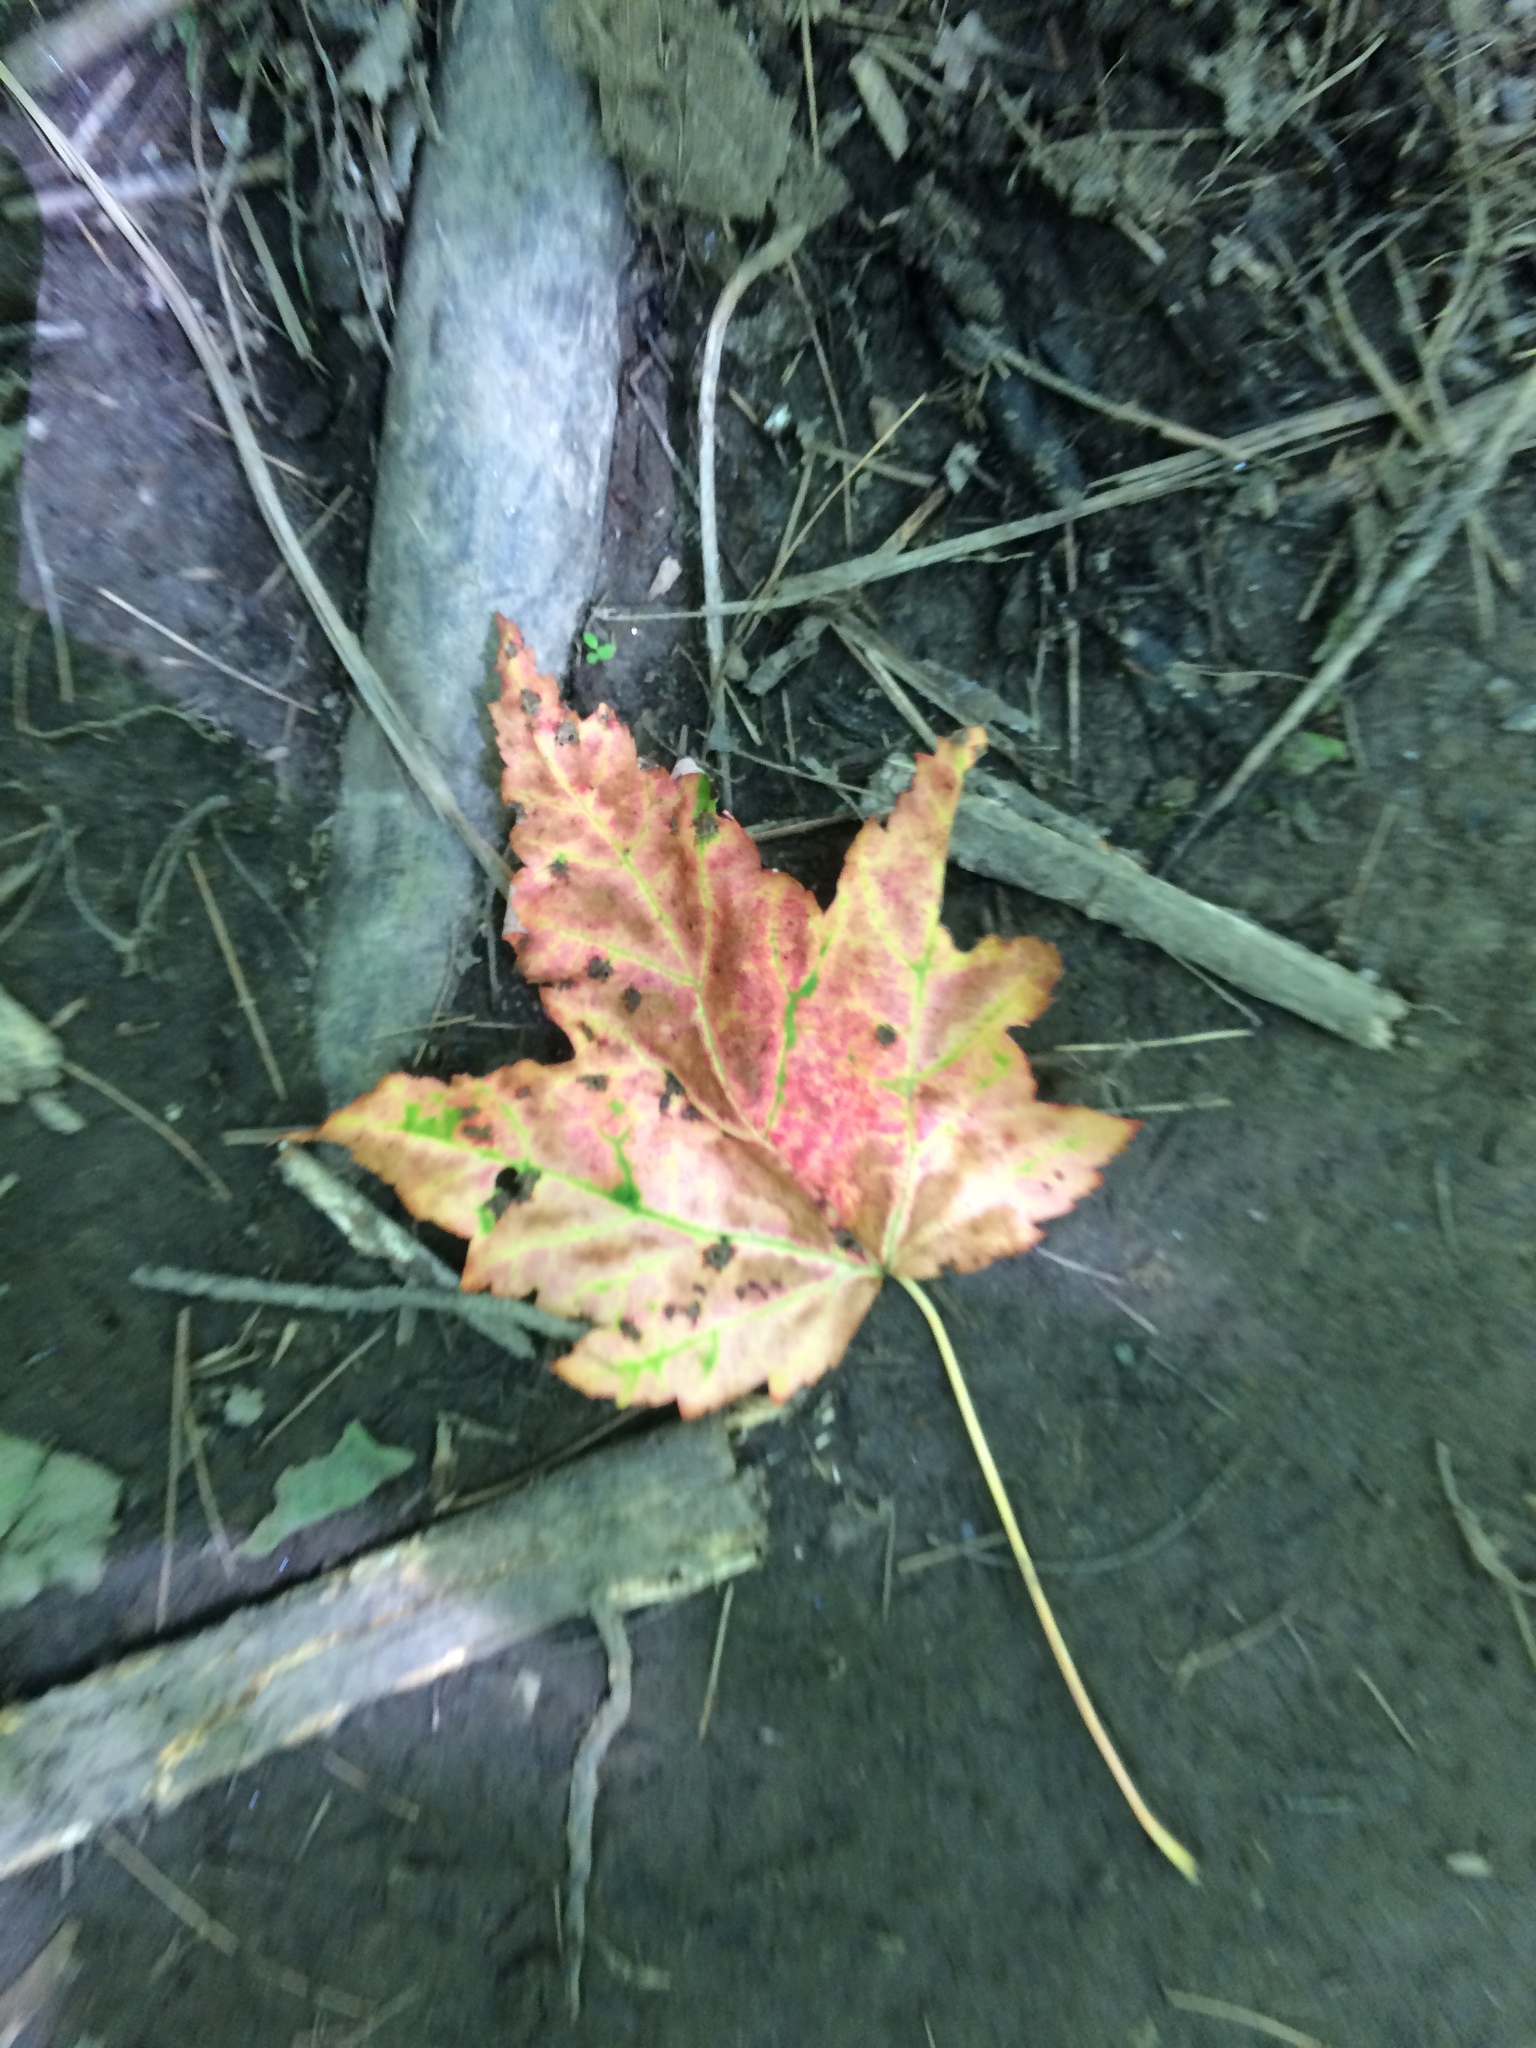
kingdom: Plantae
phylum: Tracheophyta
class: Magnoliopsida
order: Sapindales
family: Sapindaceae
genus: Acer
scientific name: Acer rubrum
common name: Red maple
